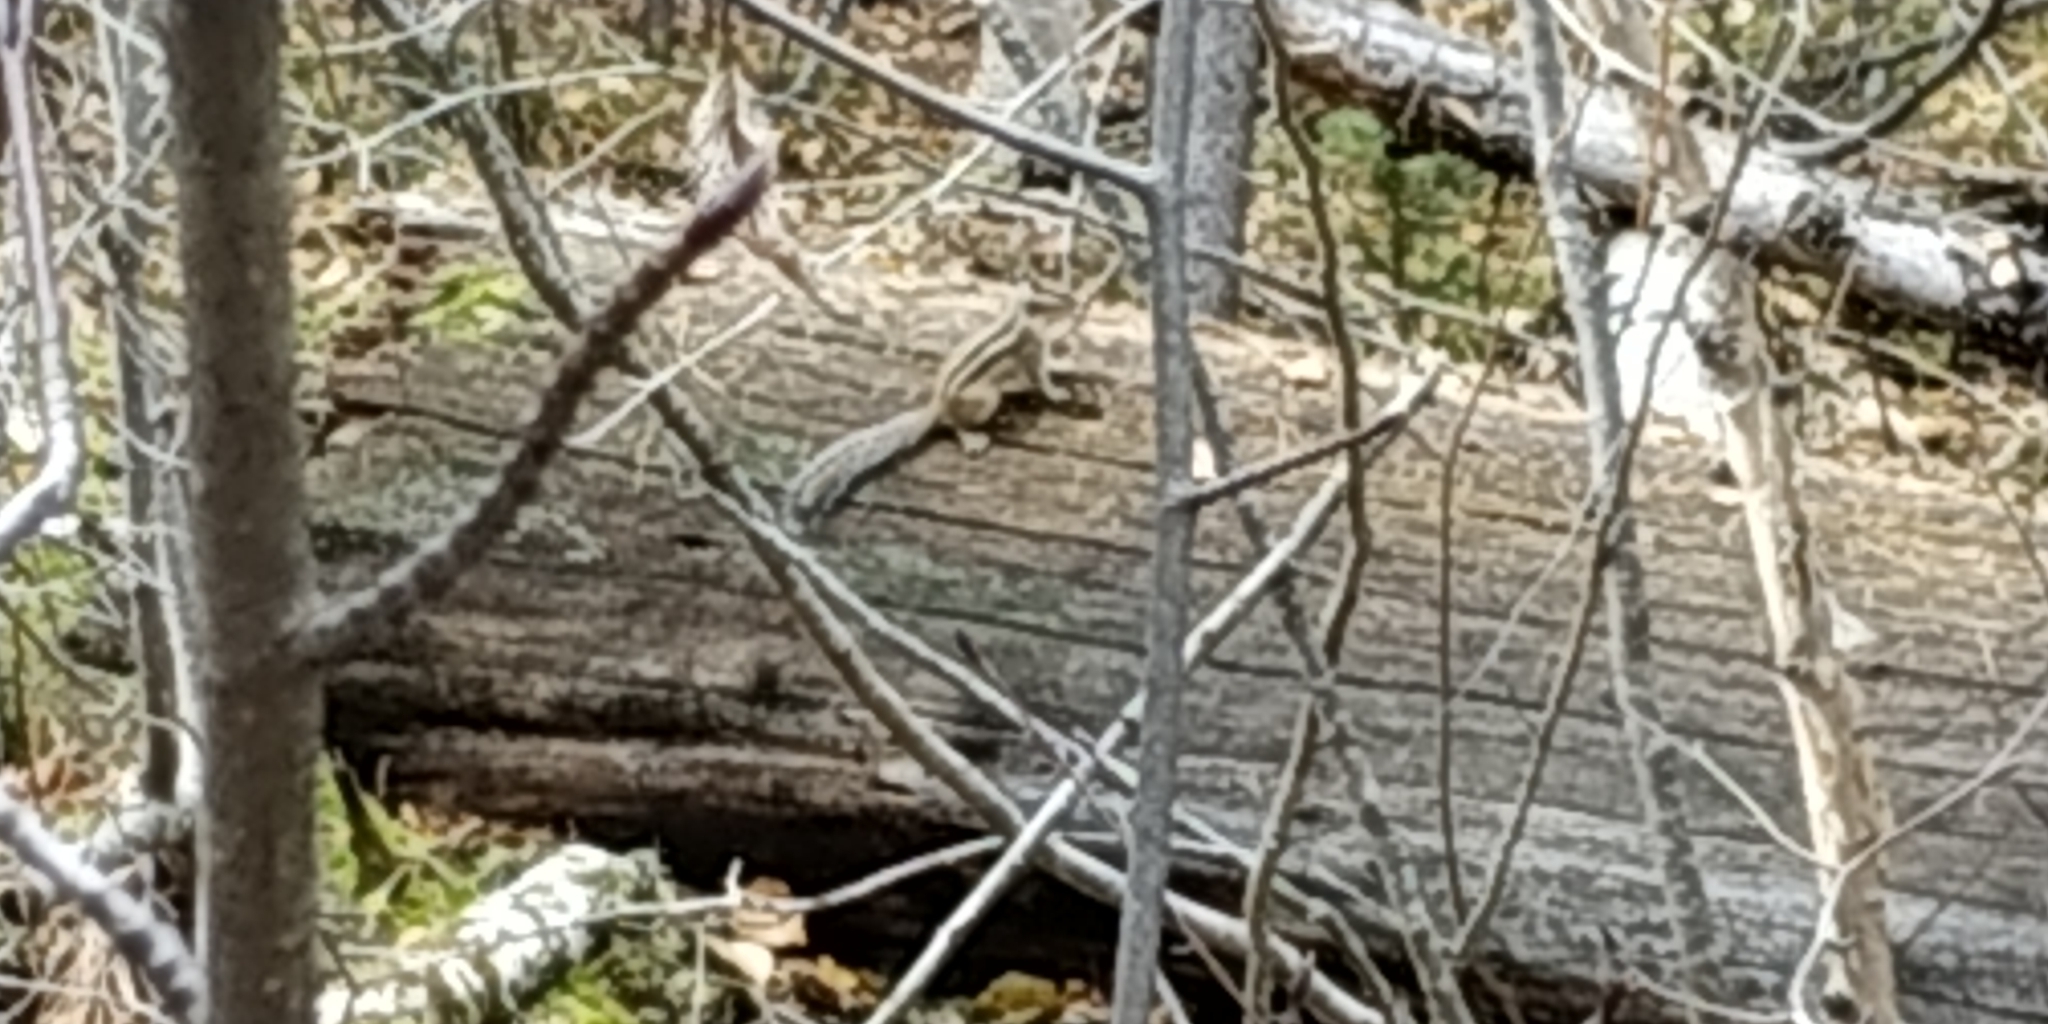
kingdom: Animalia
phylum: Chordata
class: Mammalia
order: Rodentia
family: Sciuridae
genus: Tamias
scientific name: Tamias sibiricus
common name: Siberian chipmunk
